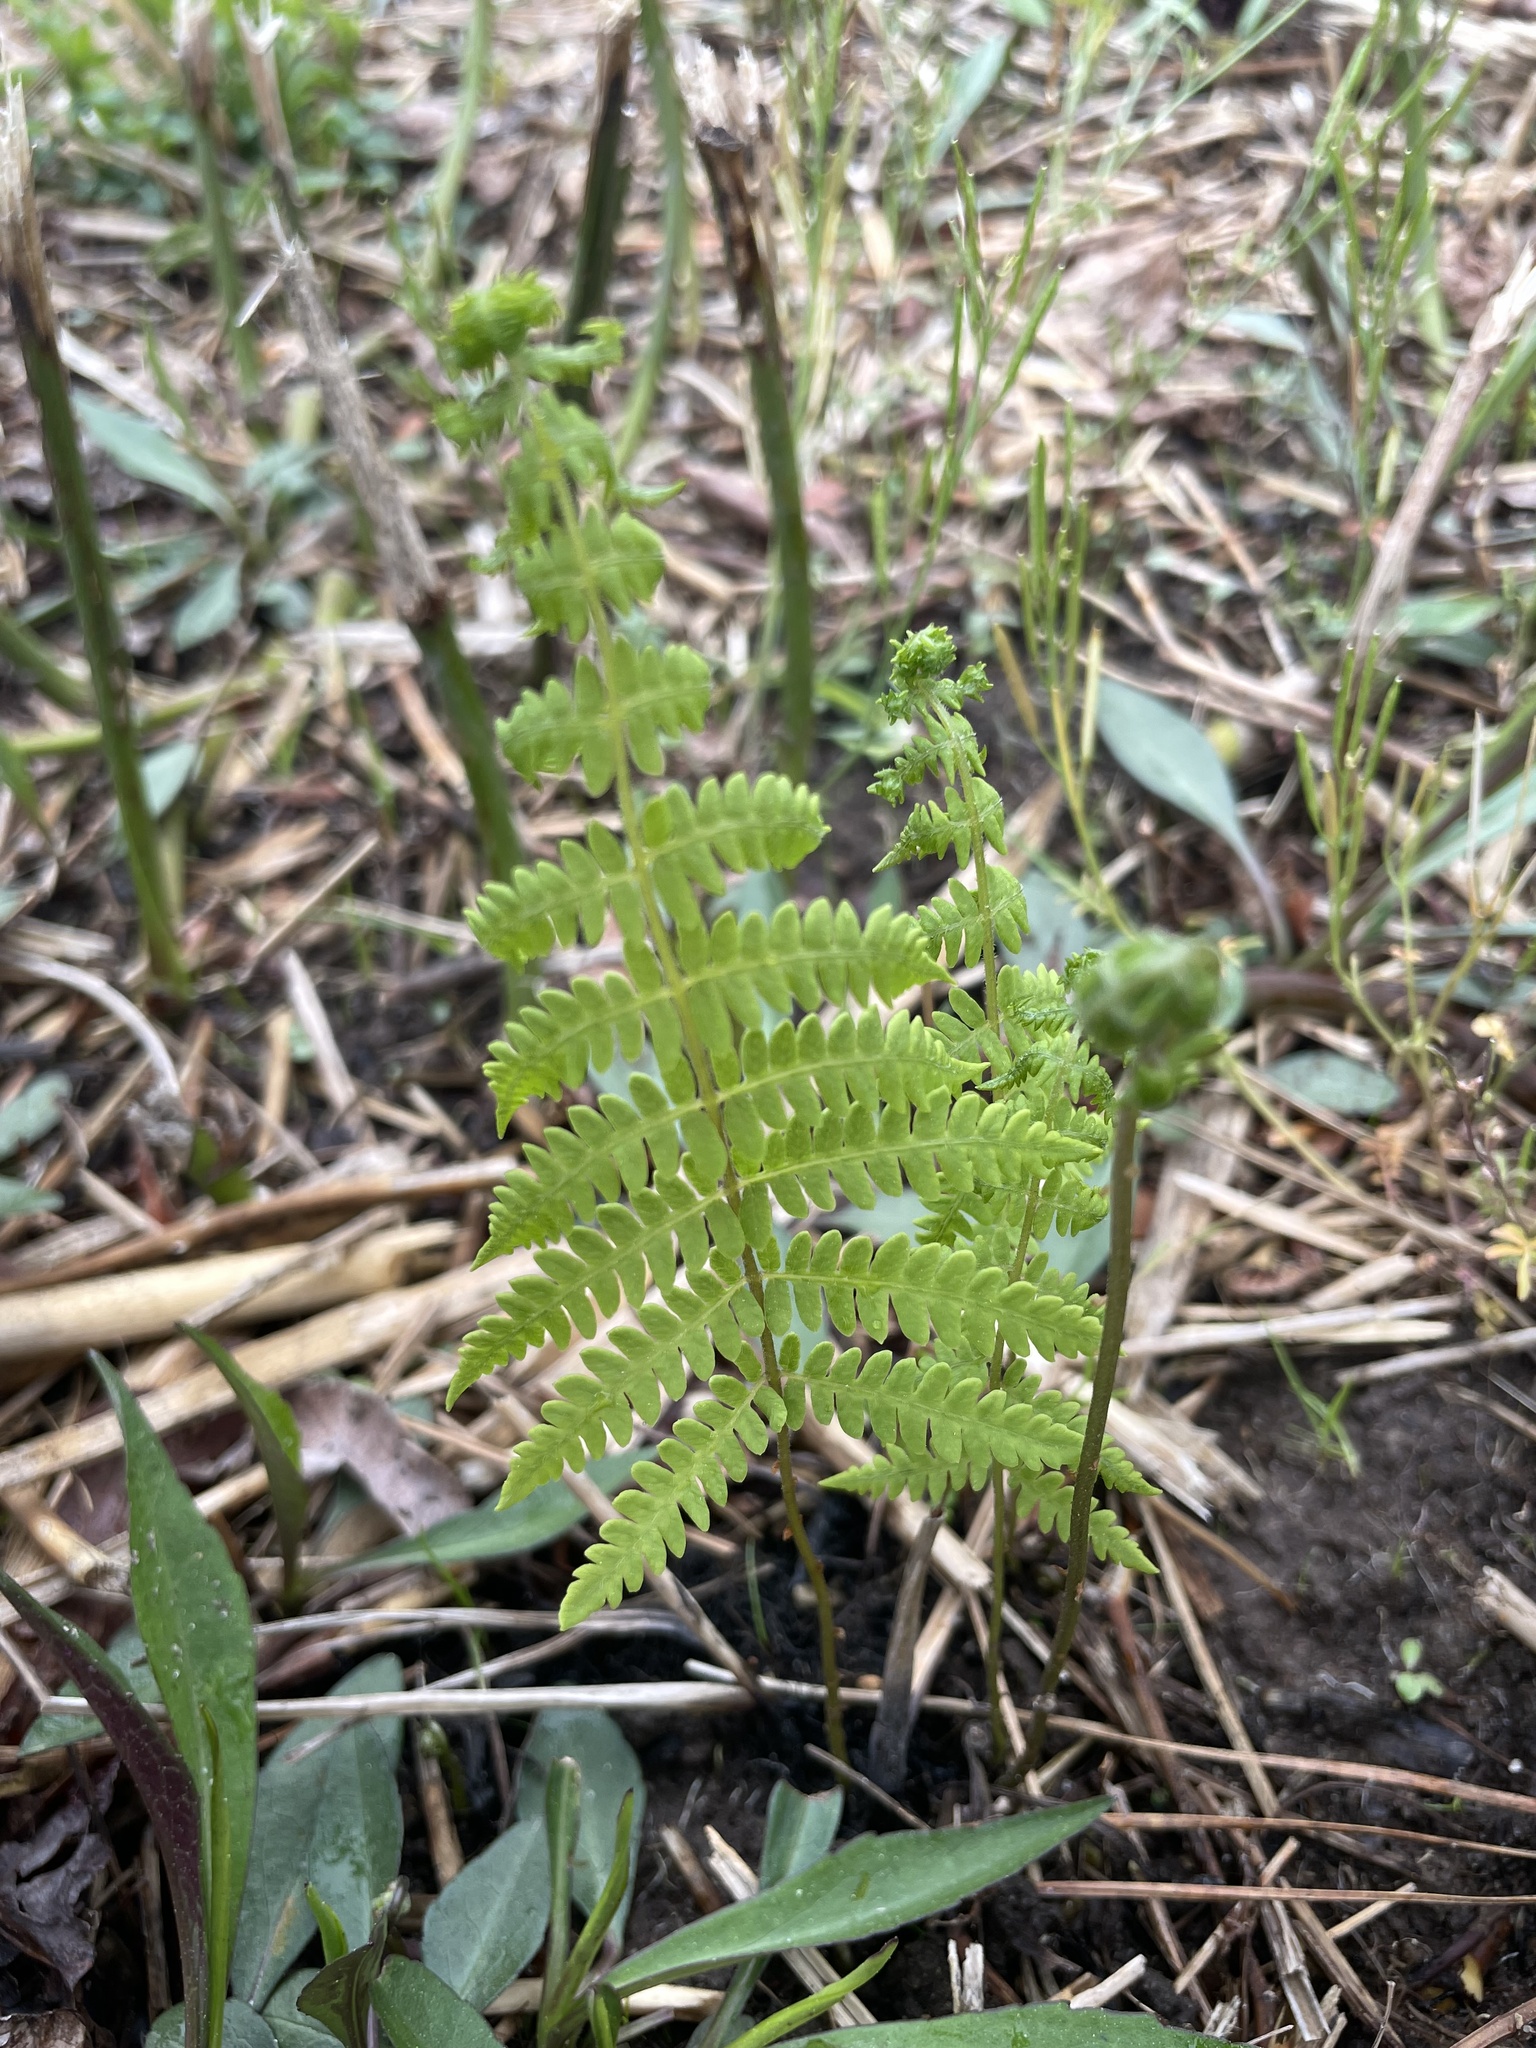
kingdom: Plantae
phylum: Tracheophyta
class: Polypodiopsida
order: Polypodiales
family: Thelypteridaceae
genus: Thelypteris
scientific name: Thelypteris palustris
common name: Marsh fern
